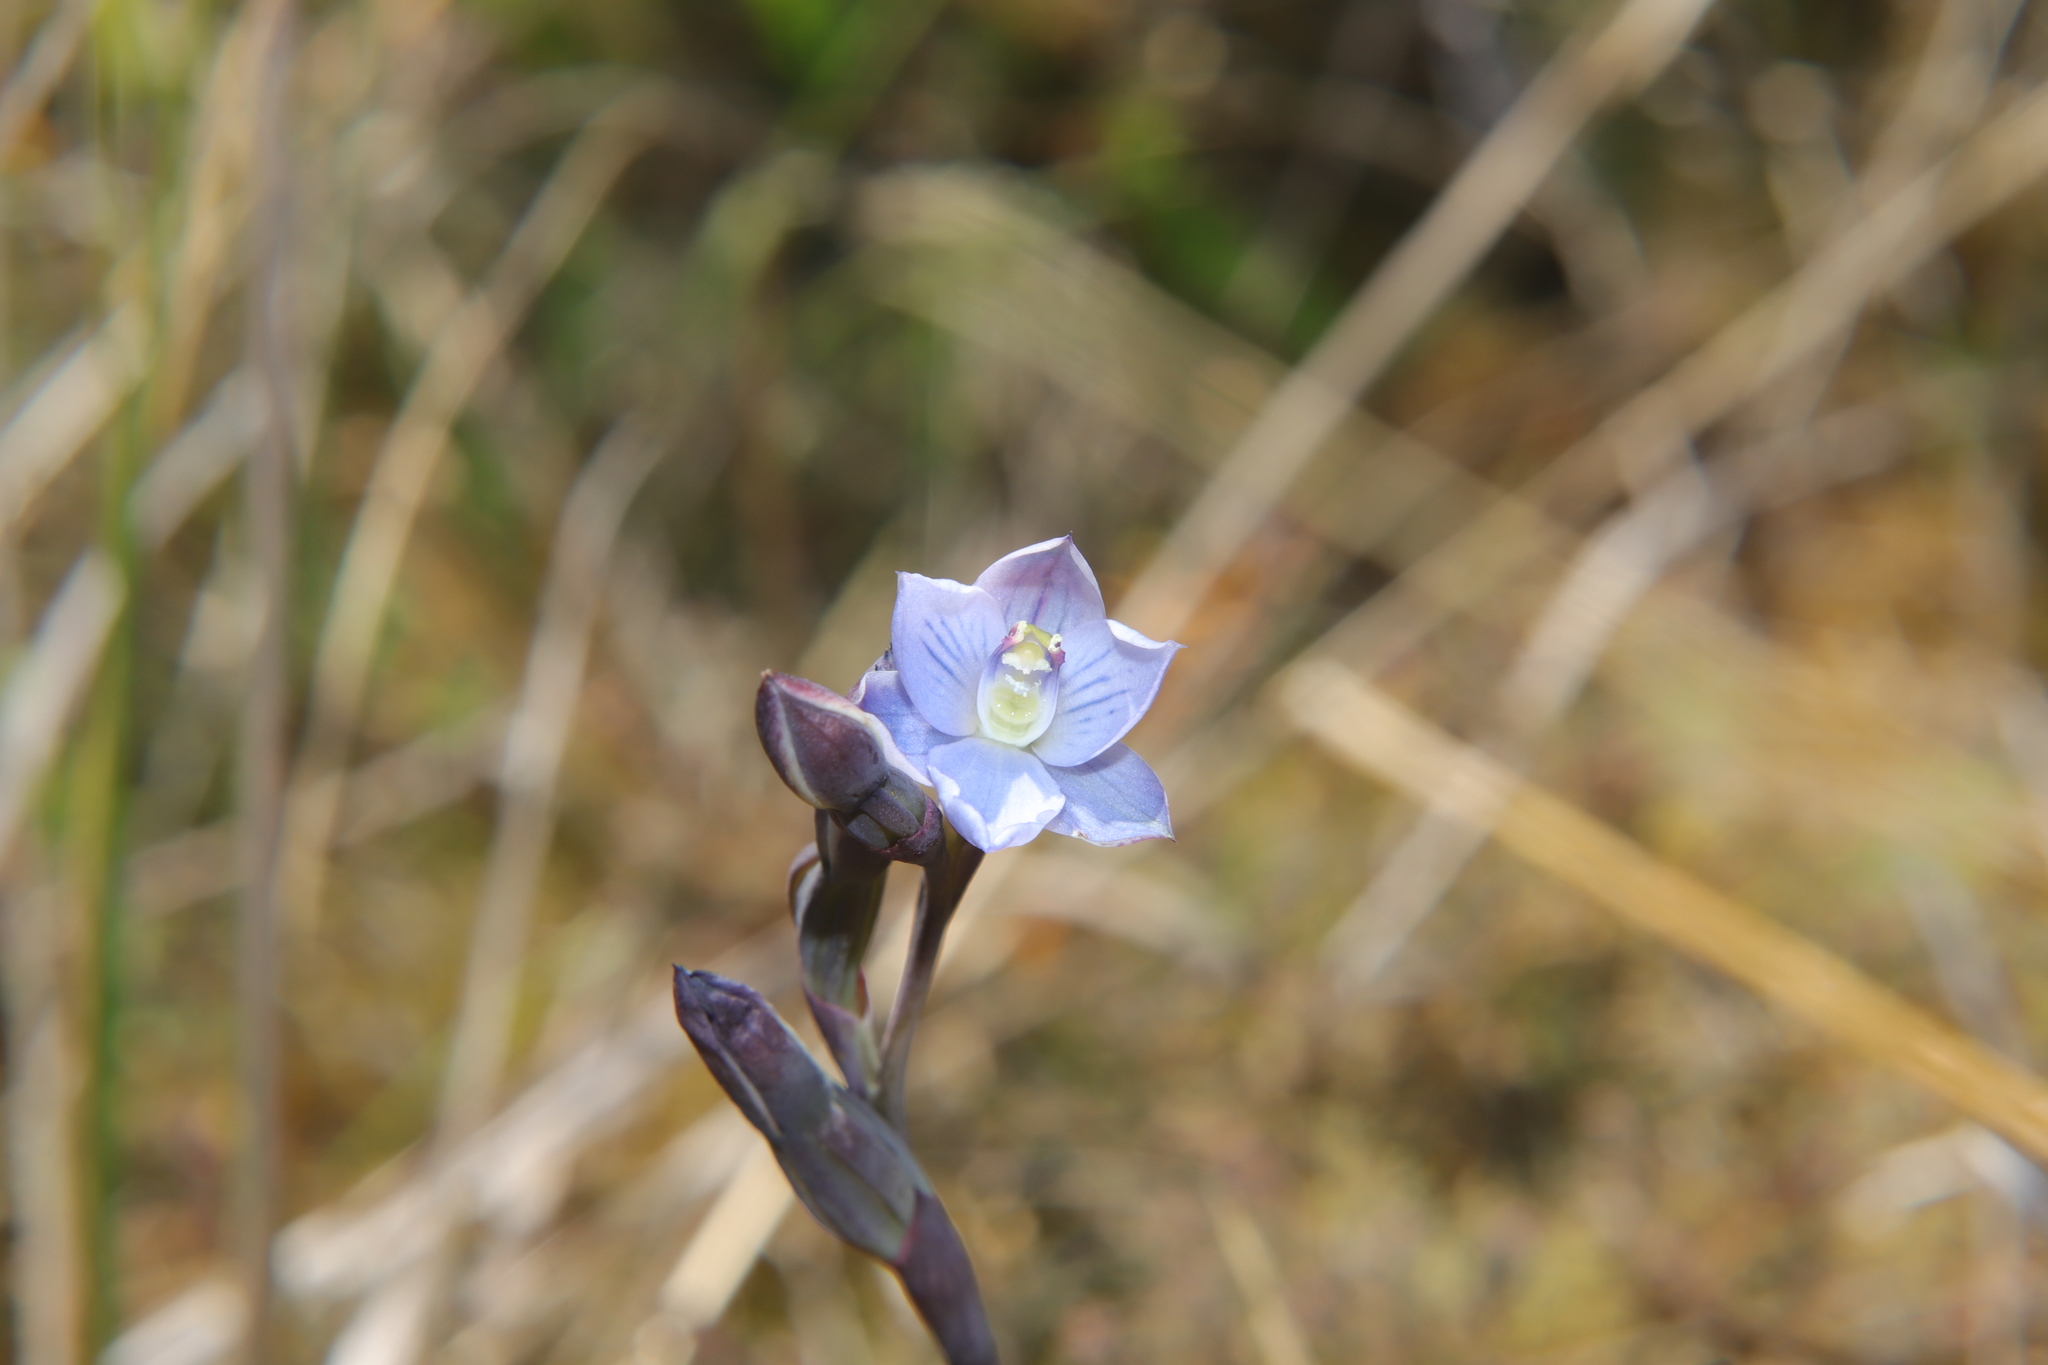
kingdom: Plantae
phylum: Tracheophyta
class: Liliopsida
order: Asparagales
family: Orchidaceae
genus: Thelymitra
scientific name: Thelymitra pulchella
